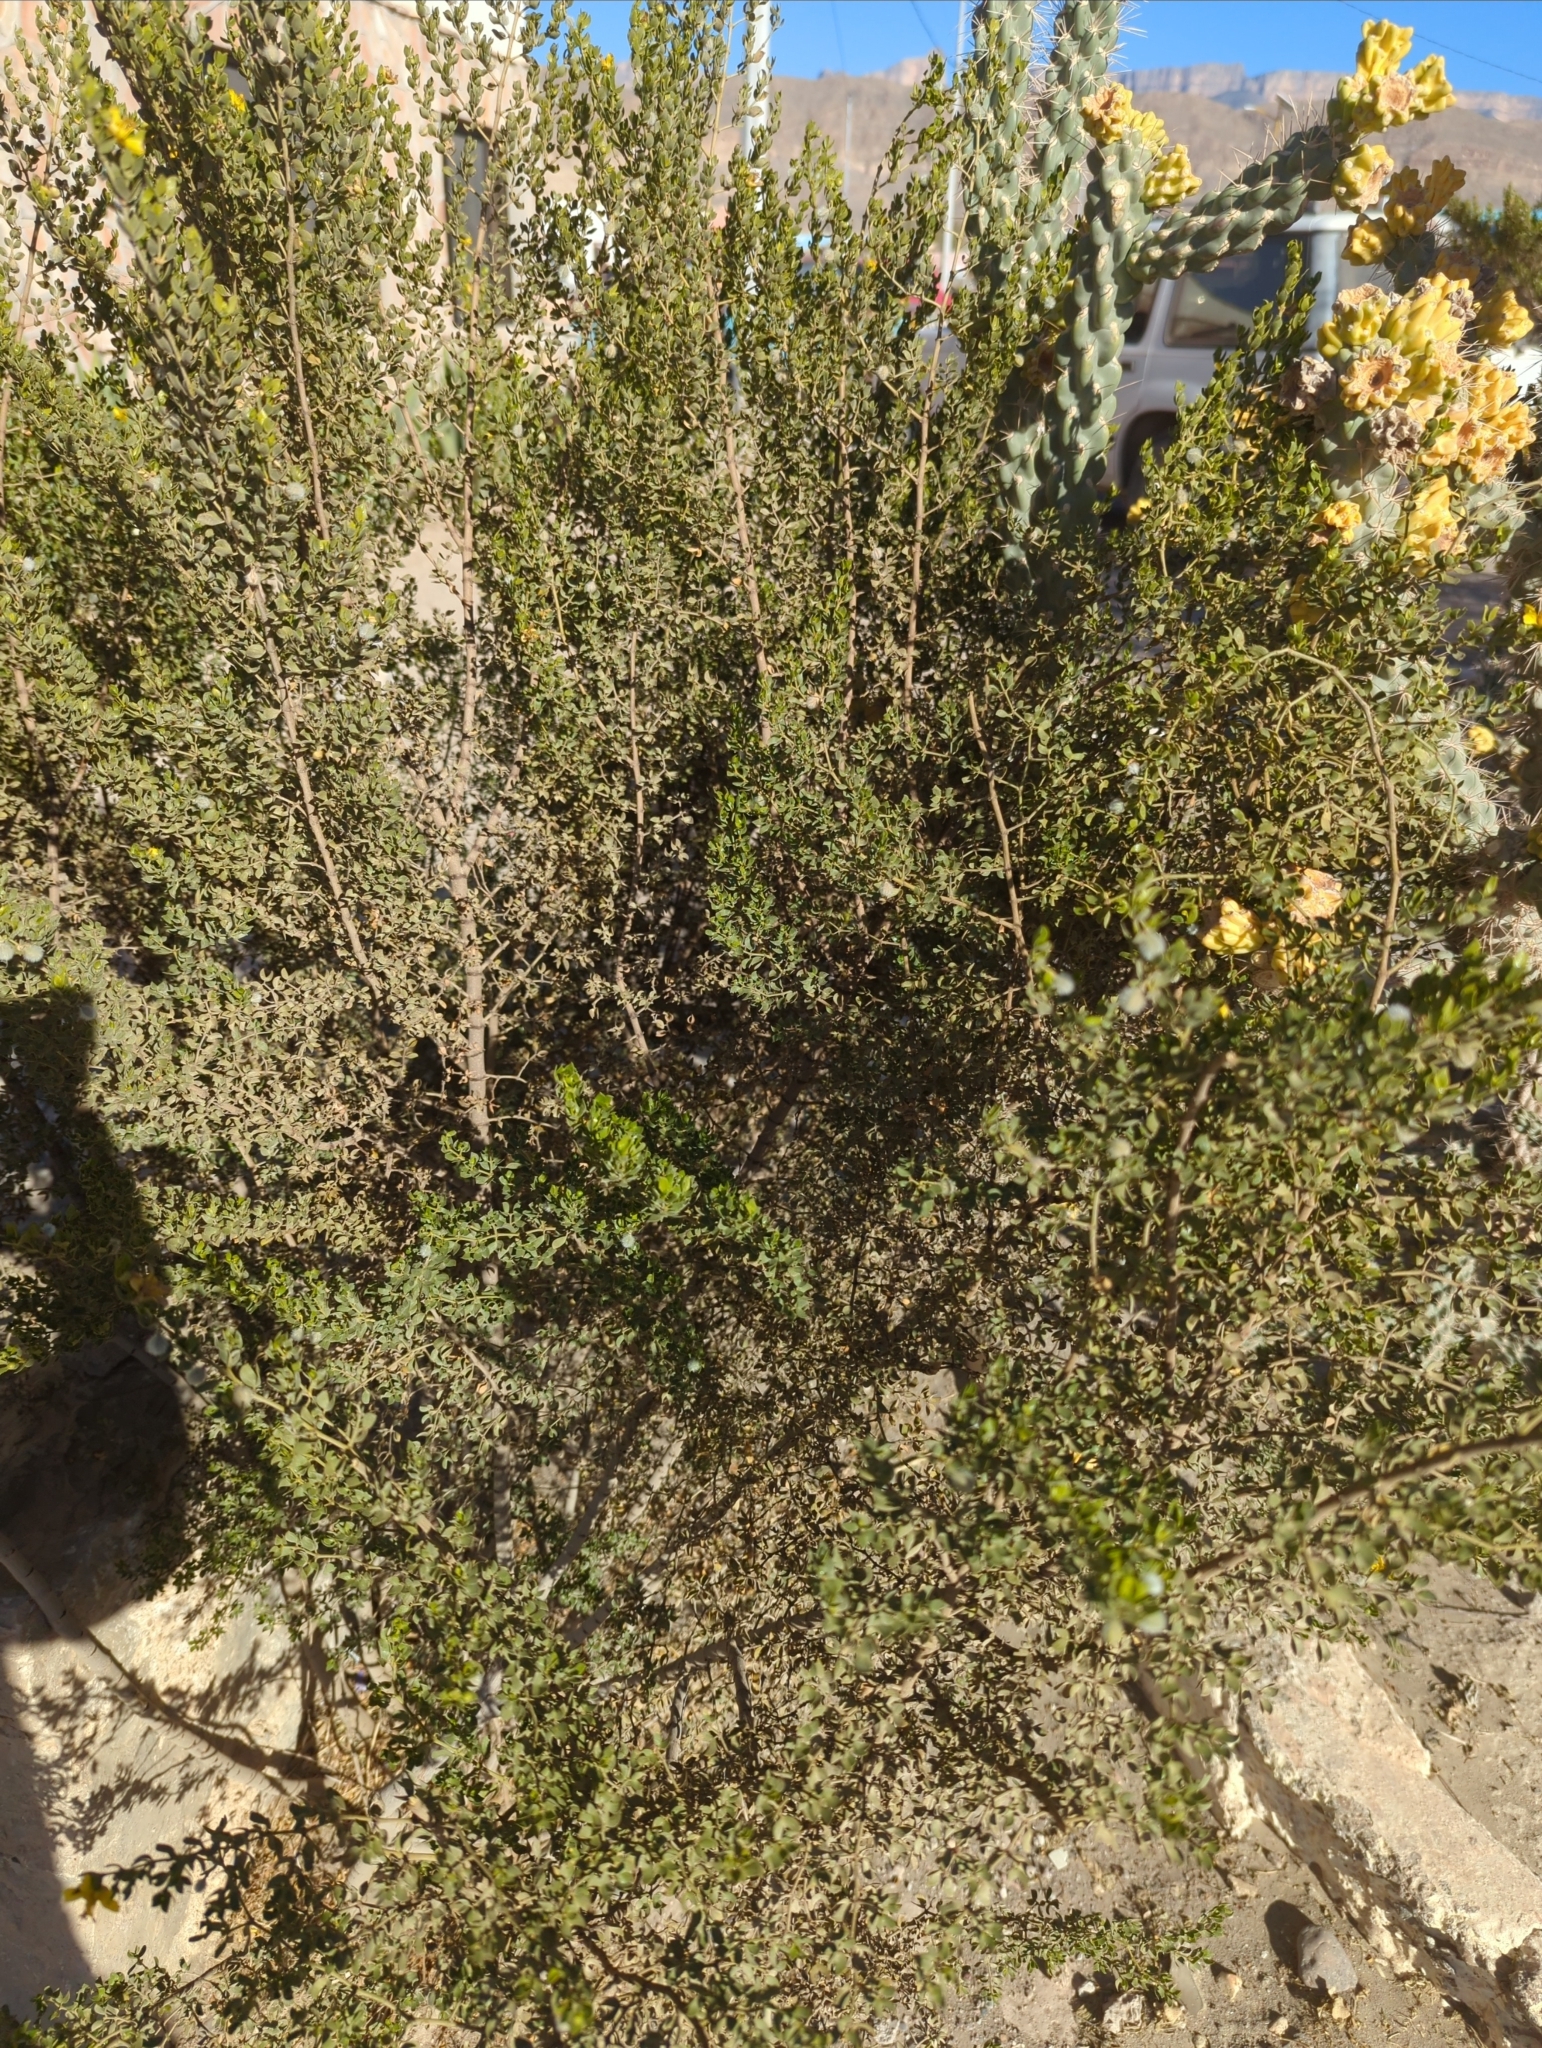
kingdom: Plantae
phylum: Tracheophyta
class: Magnoliopsida
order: Zygophyllales
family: Zygophyllaceae
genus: Larrea
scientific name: Larrea tridentata
